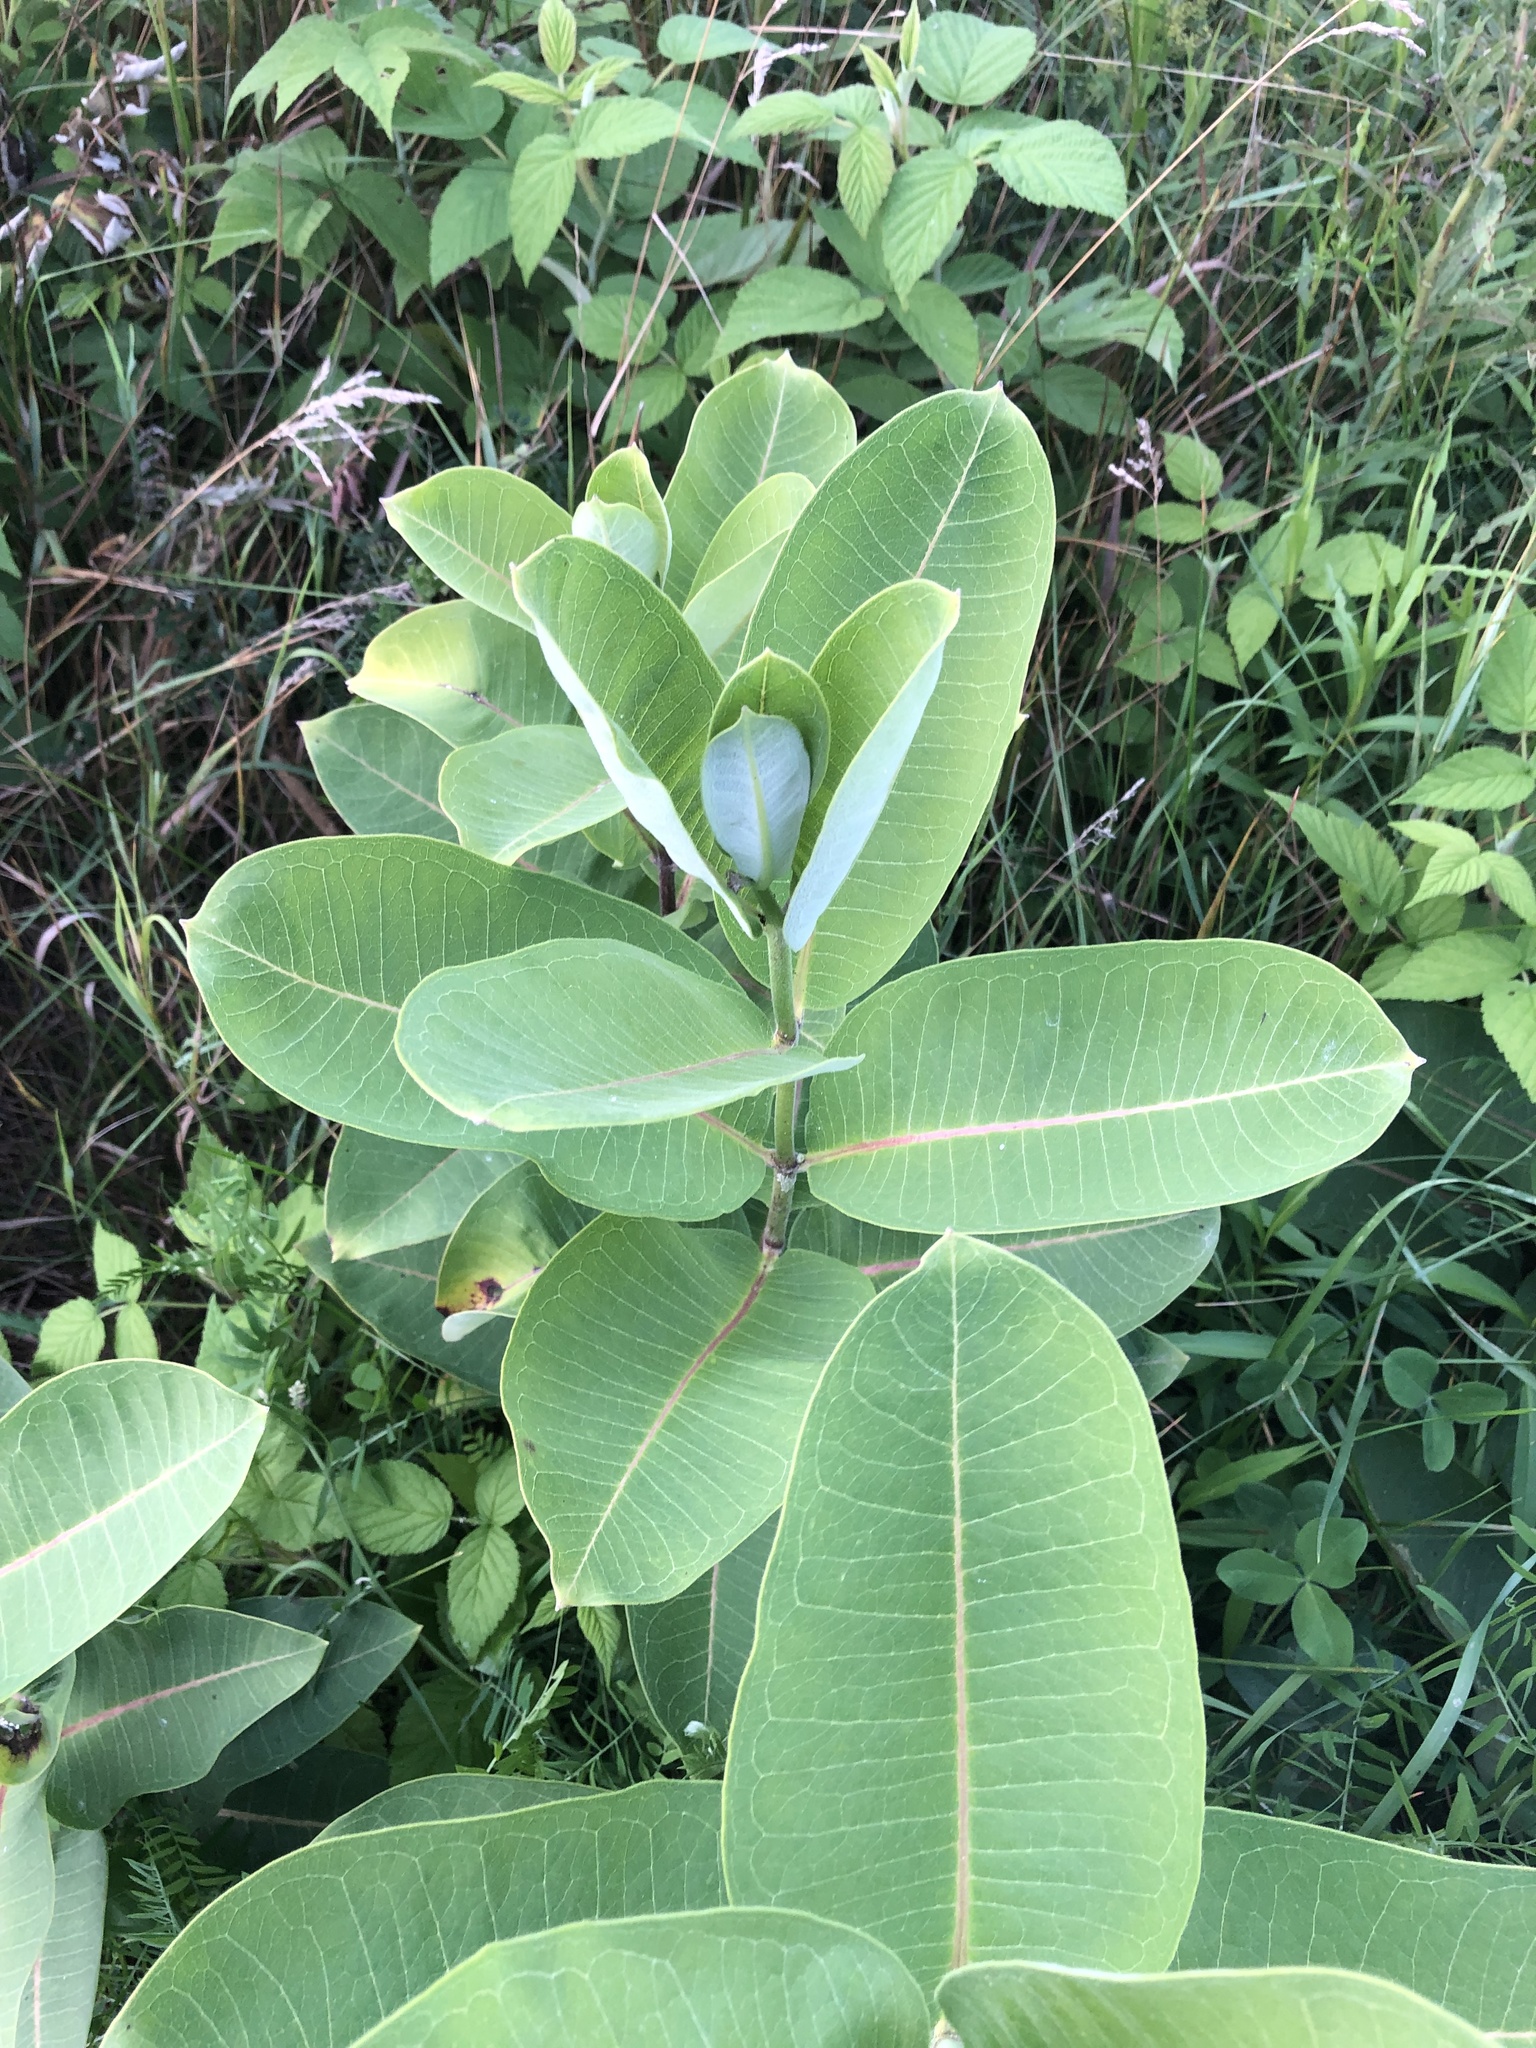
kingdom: Plantae
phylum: Tracheophyta
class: Magnoliopsida
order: Gentianales
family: Apocynaceae
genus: Asclepias
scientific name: Asclepias syriaca
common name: Common milkweed
